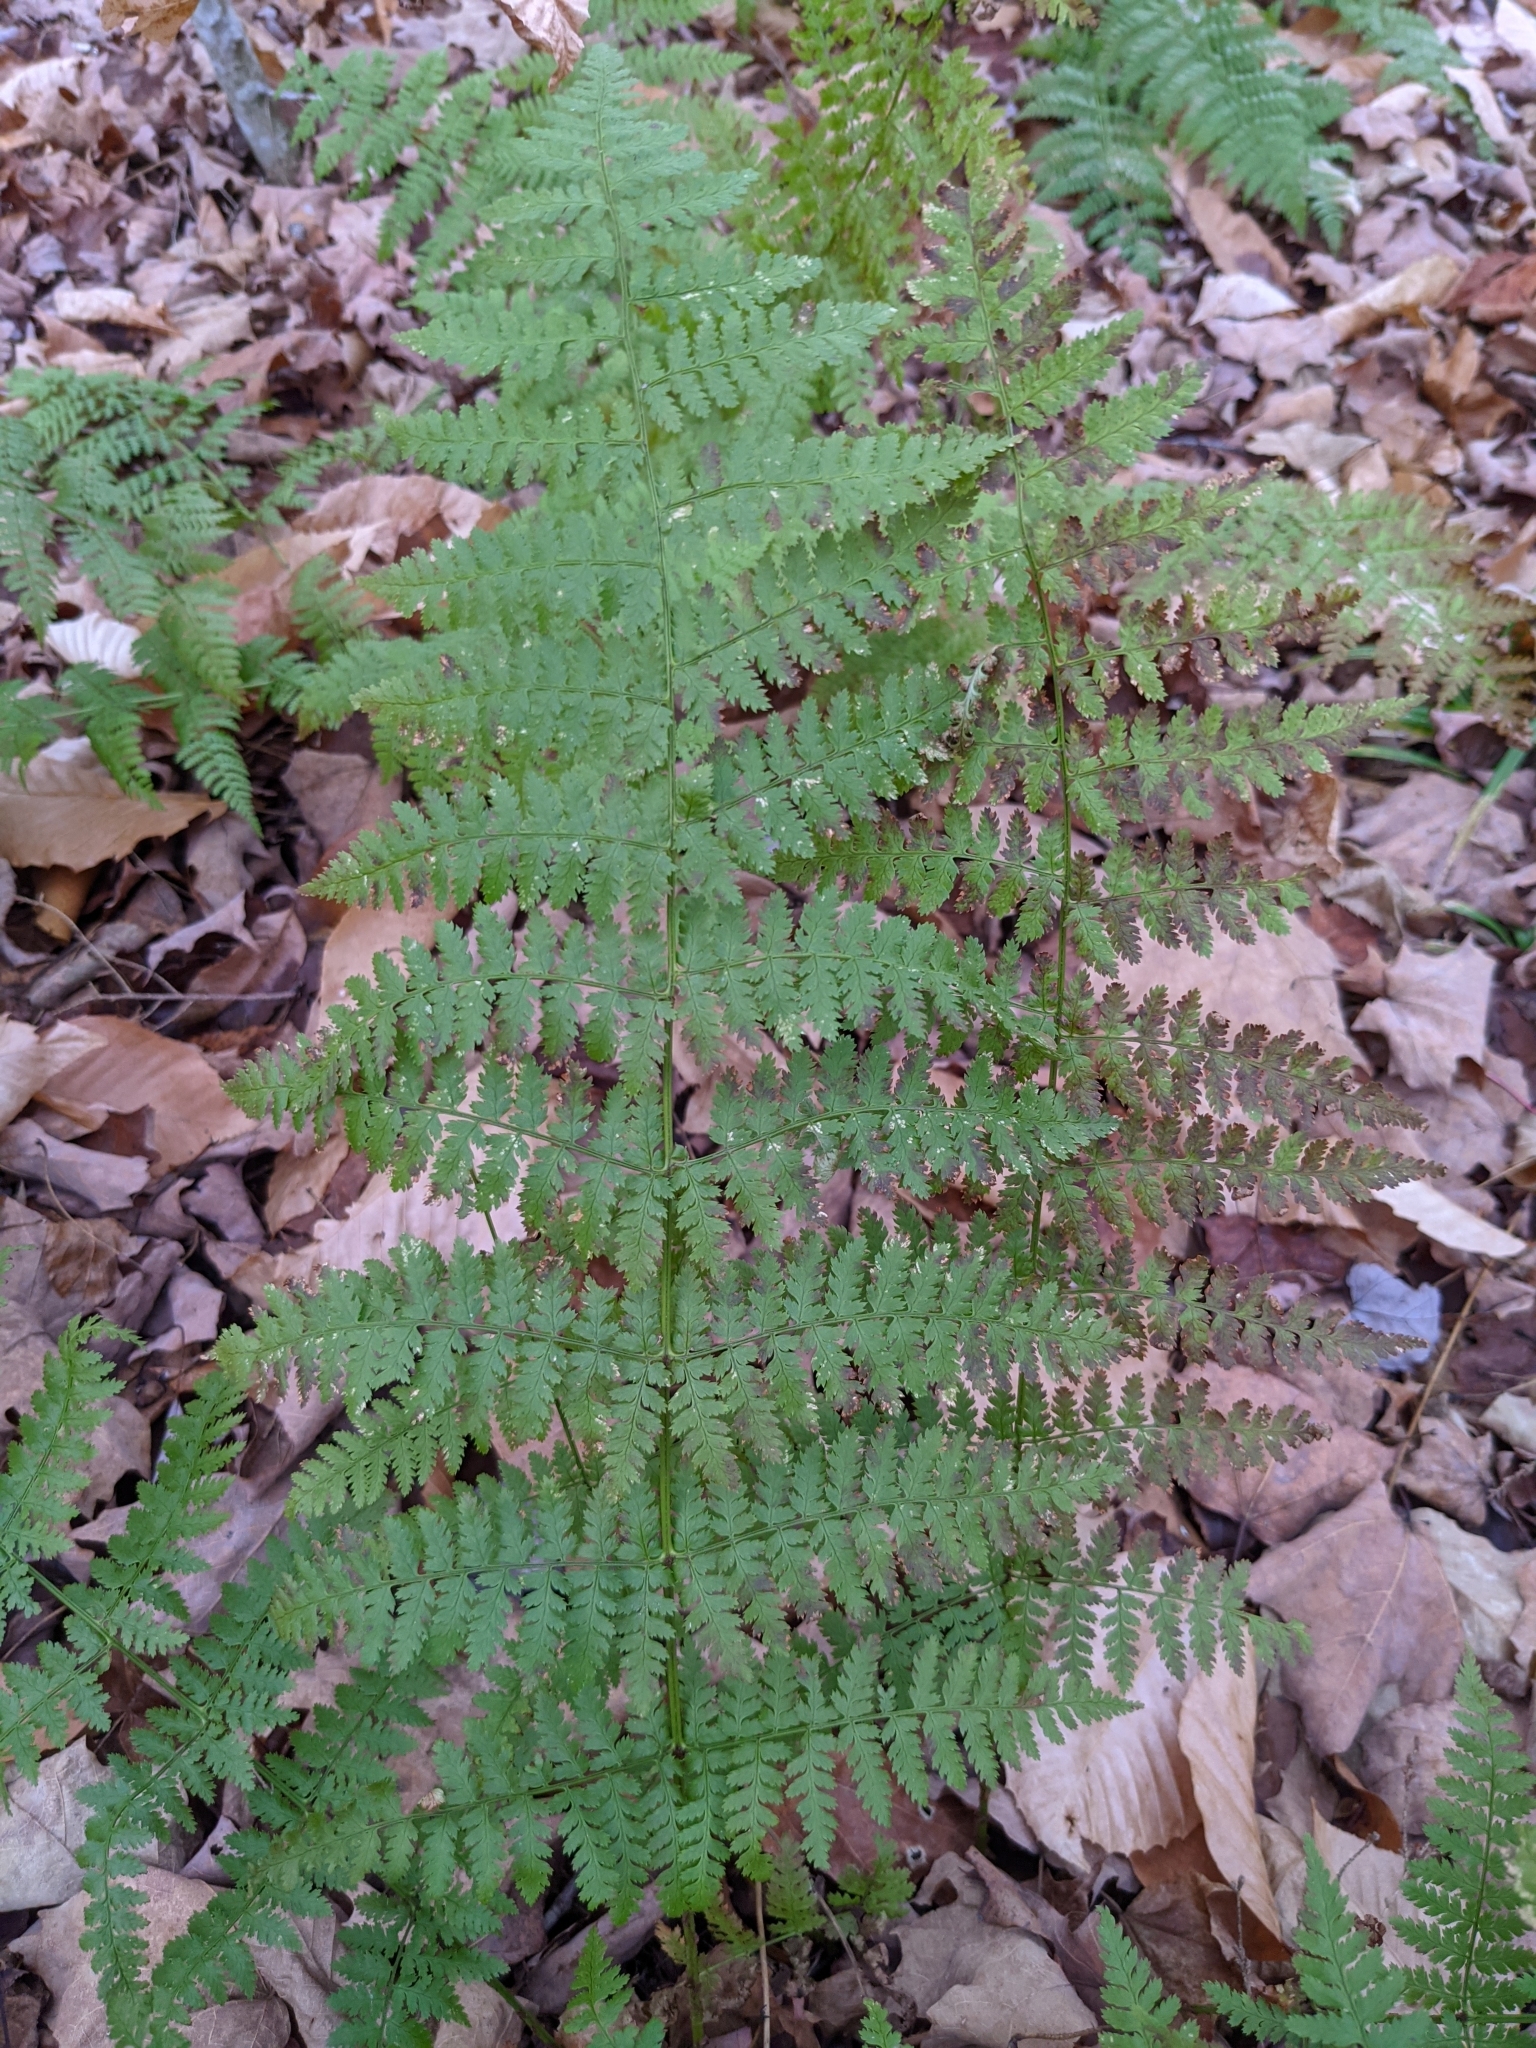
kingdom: Plantae
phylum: Tracheophyta
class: Polypodiopsida
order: Polypodiales
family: Dryopteridaceae
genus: Dryopteris
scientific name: Dryopteris intermedia
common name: Evergreen wood fern
